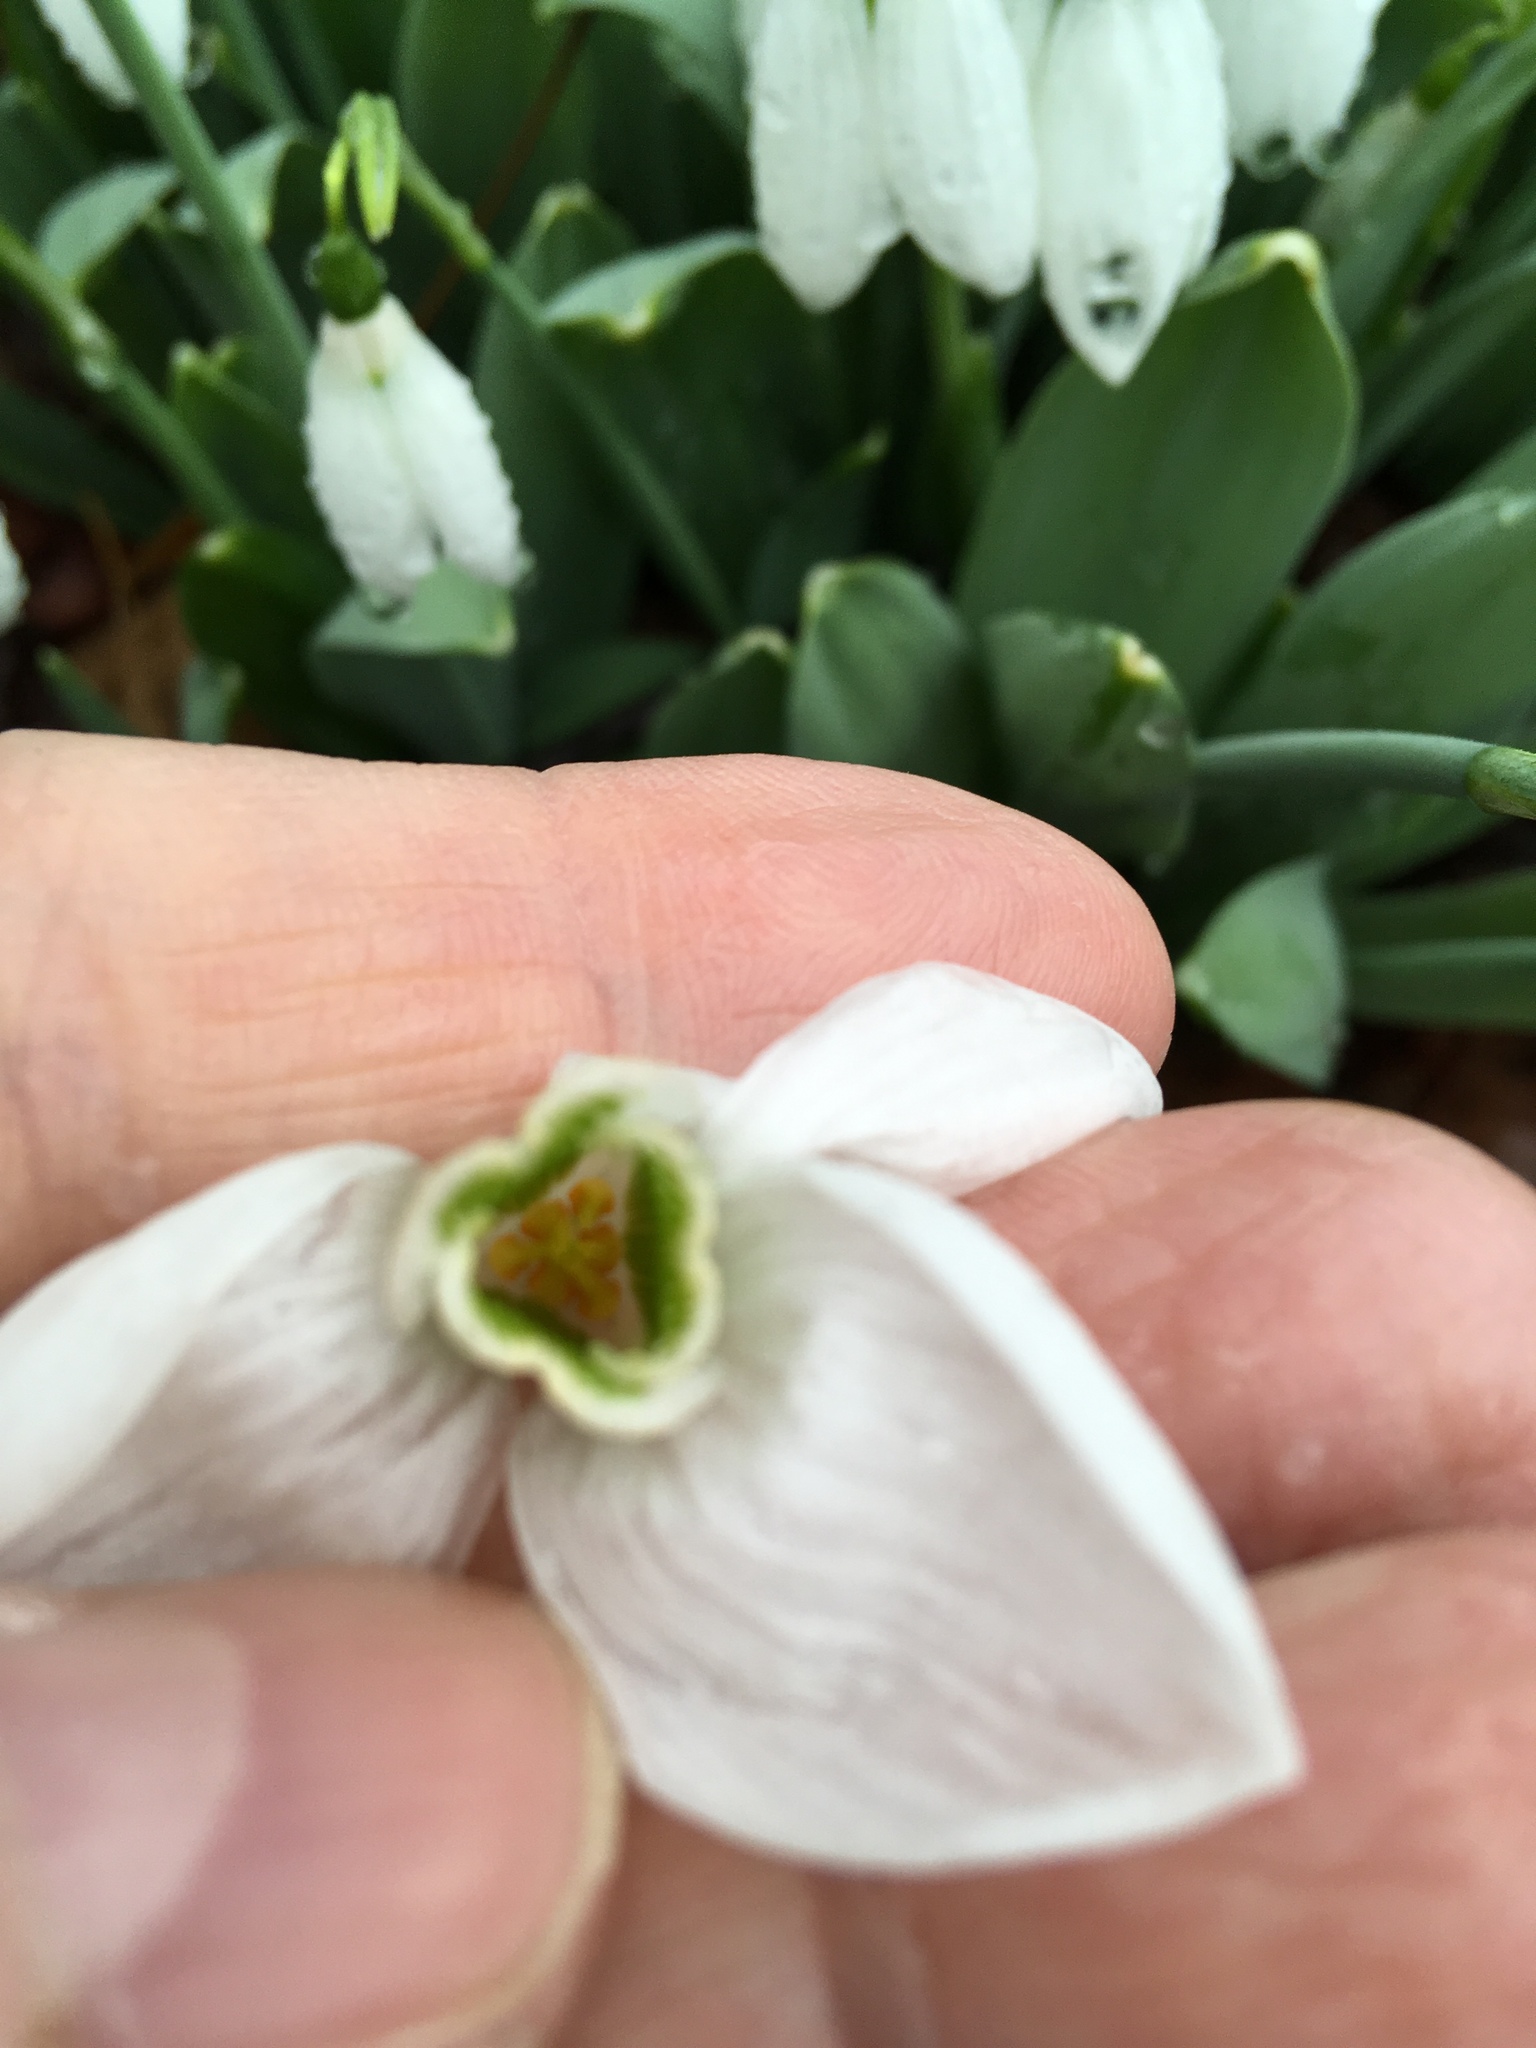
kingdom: Plantae
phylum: Tracheophyta
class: Liliopsida
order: Asparagales
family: Amaryllidaceae
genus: Galanthus
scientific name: Galanthus elwesii
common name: Greater snowdrop
